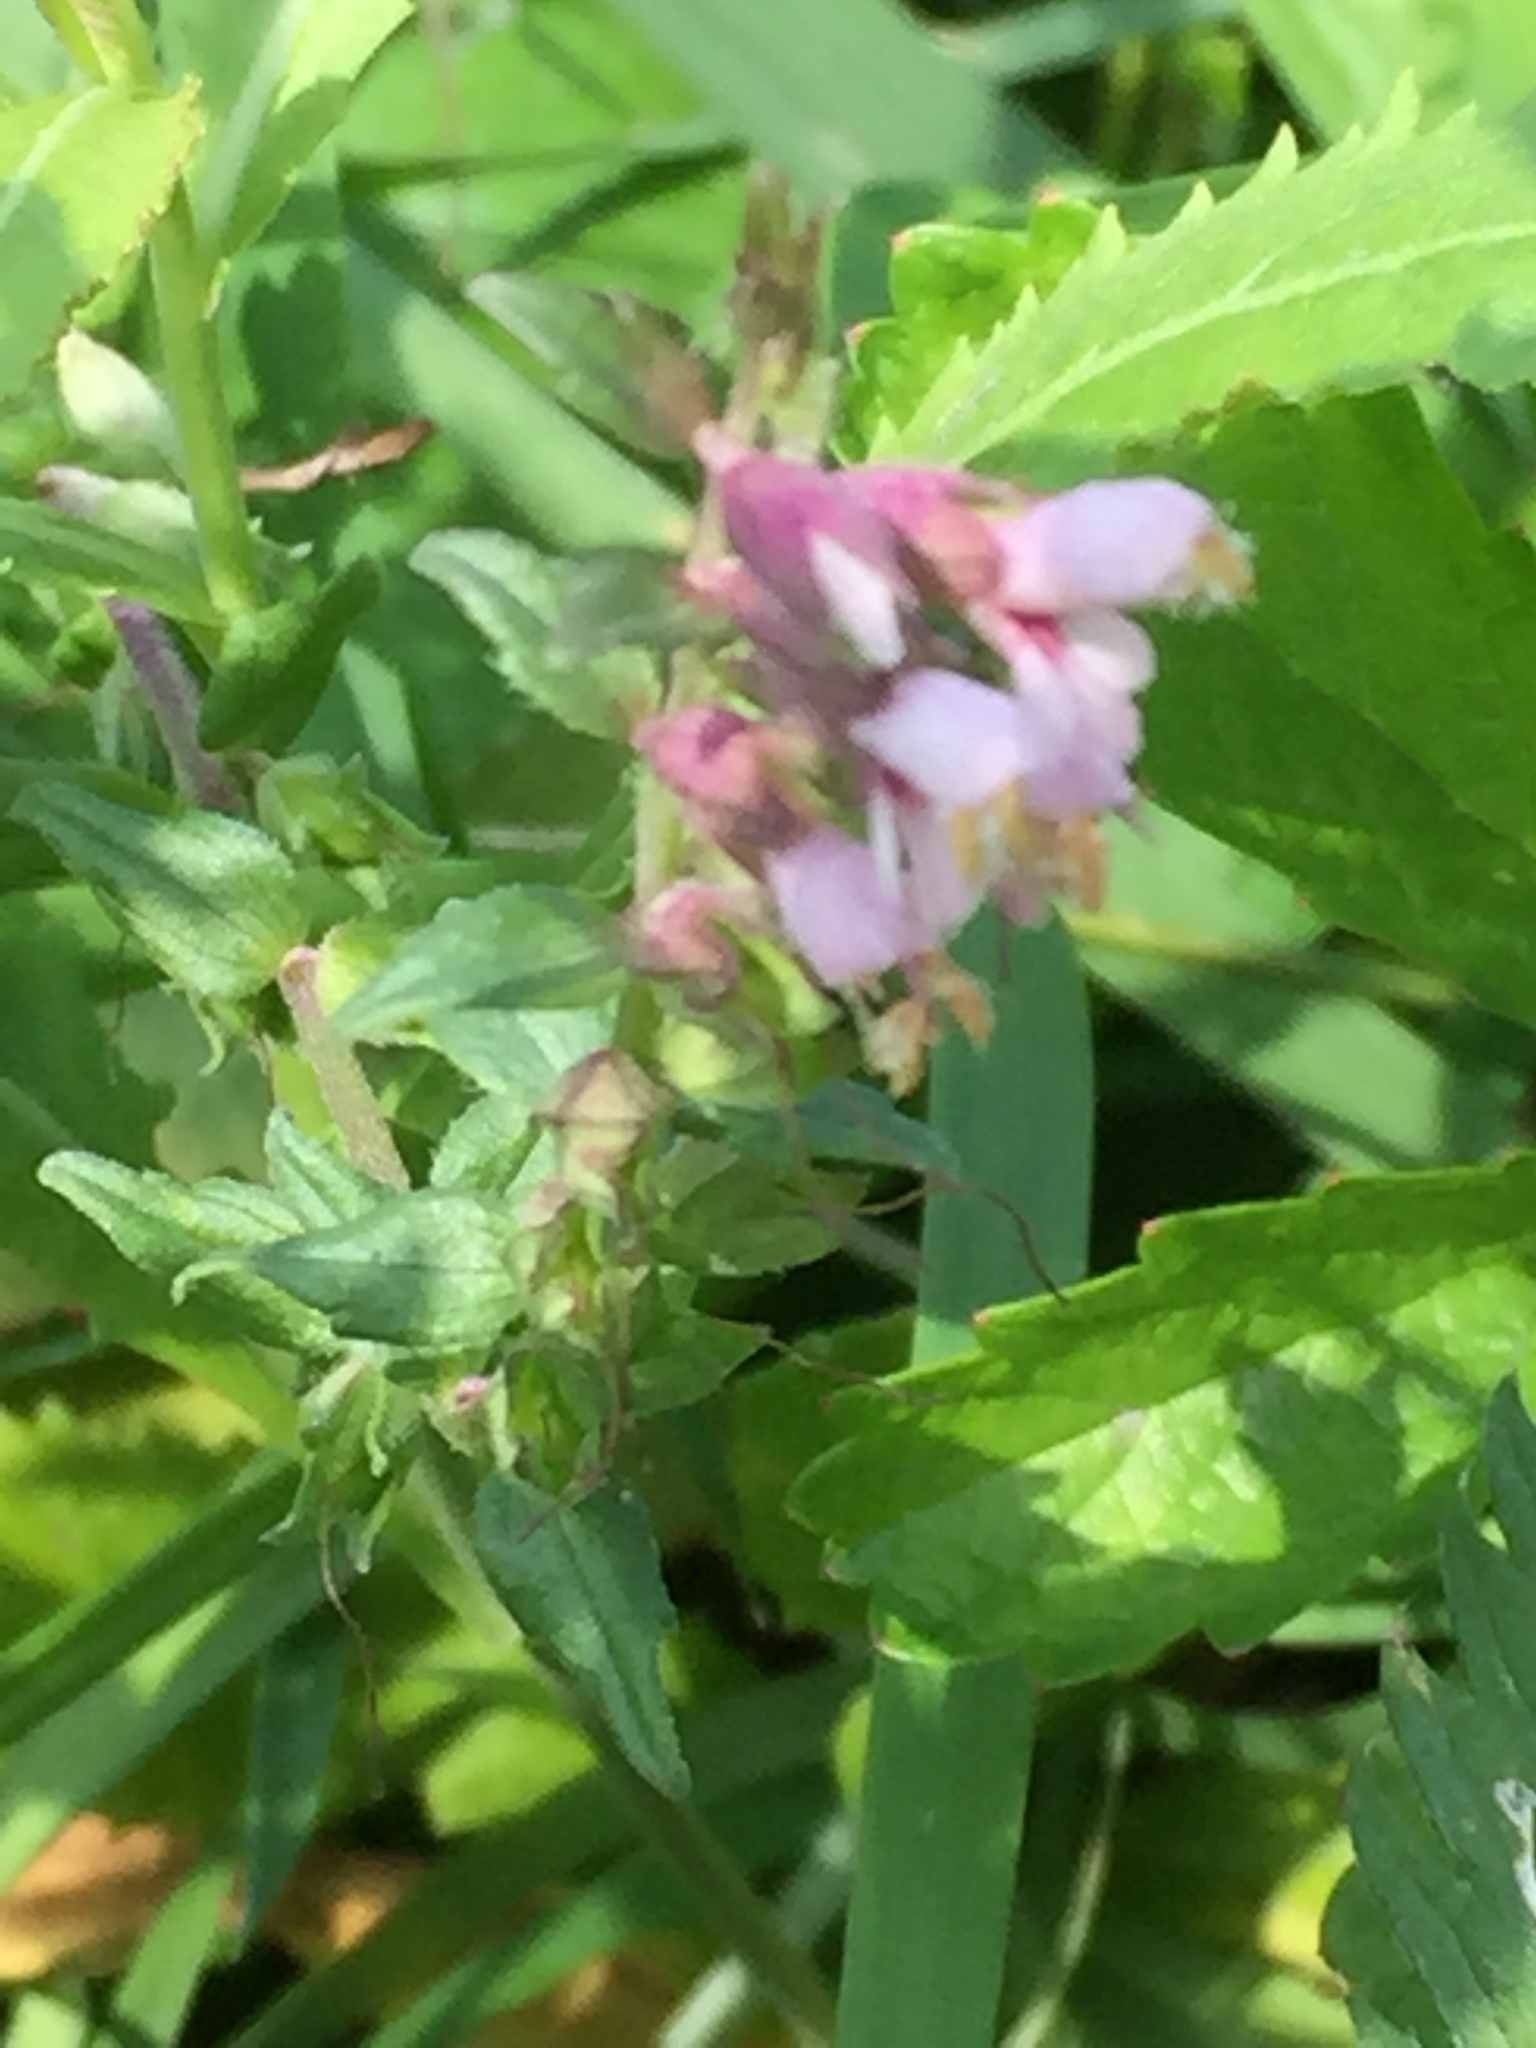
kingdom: Plantae
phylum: Tracheophyta
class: Magnoliopsida
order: Lamiales
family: Orobanchaceae
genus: Odontites
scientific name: Odontites vernus
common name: Red bartsia
